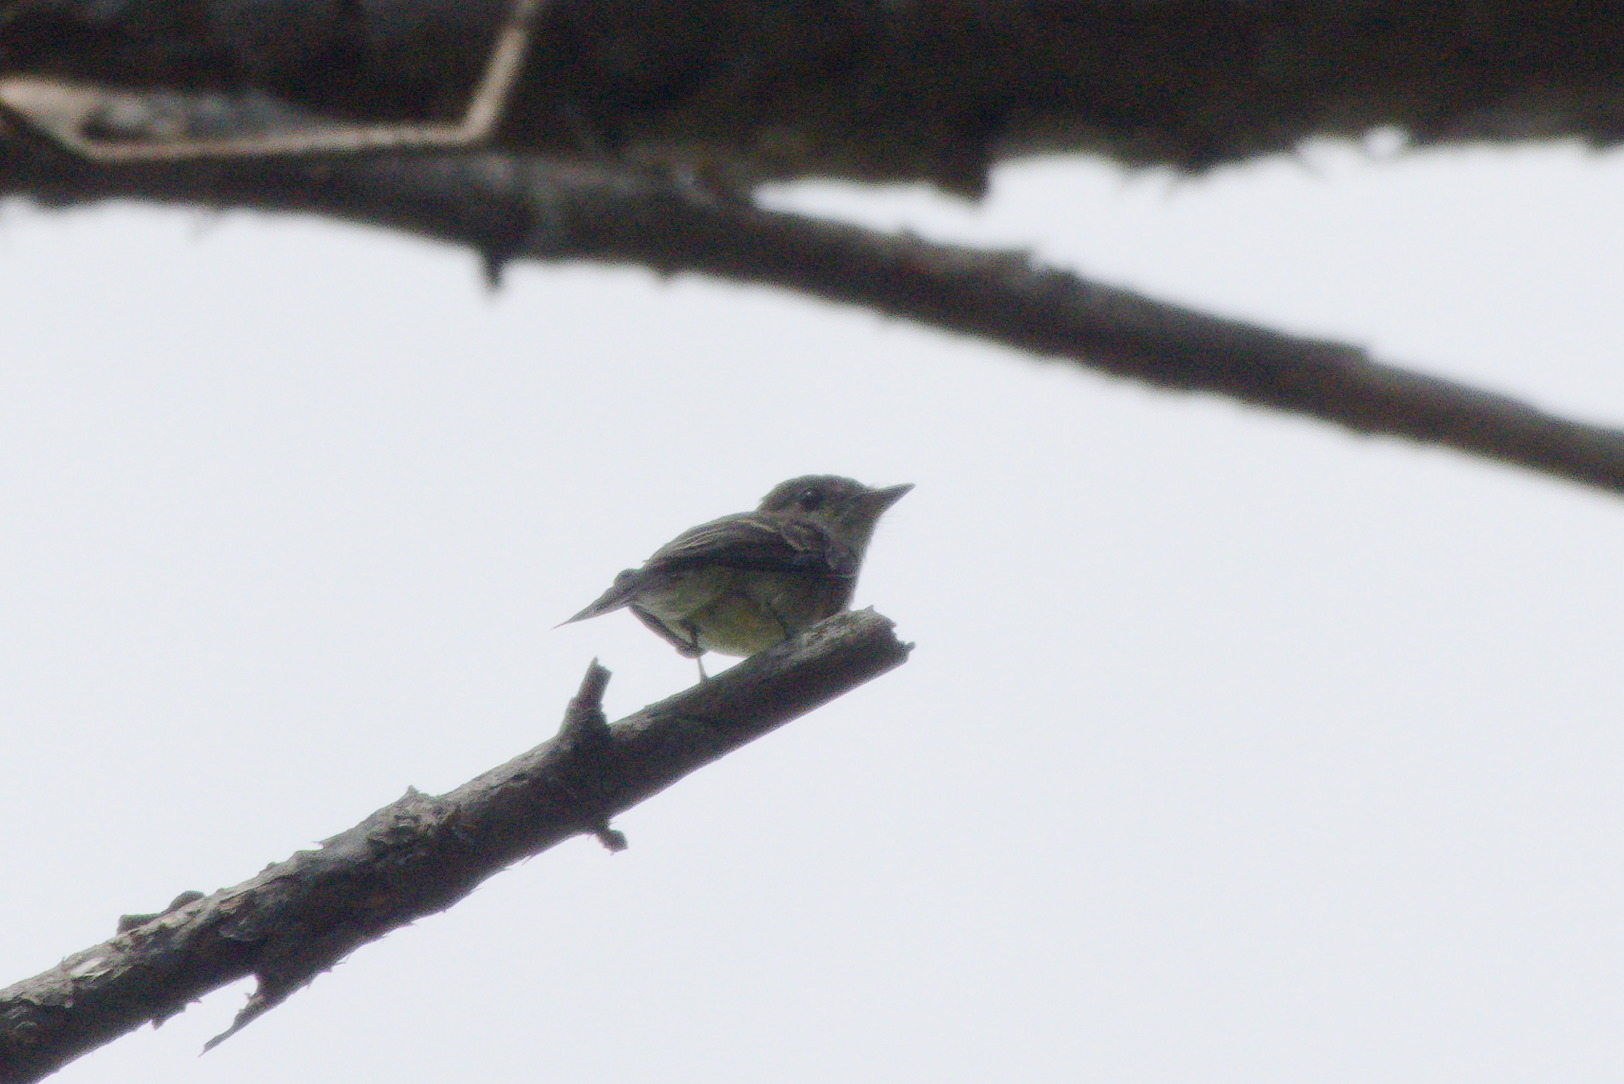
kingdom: Animalia
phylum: Chordata
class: Aves
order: Passeriformes
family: Tyrannidae
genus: Contopus
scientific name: Contopus virens
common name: Eastern wood-pewee
